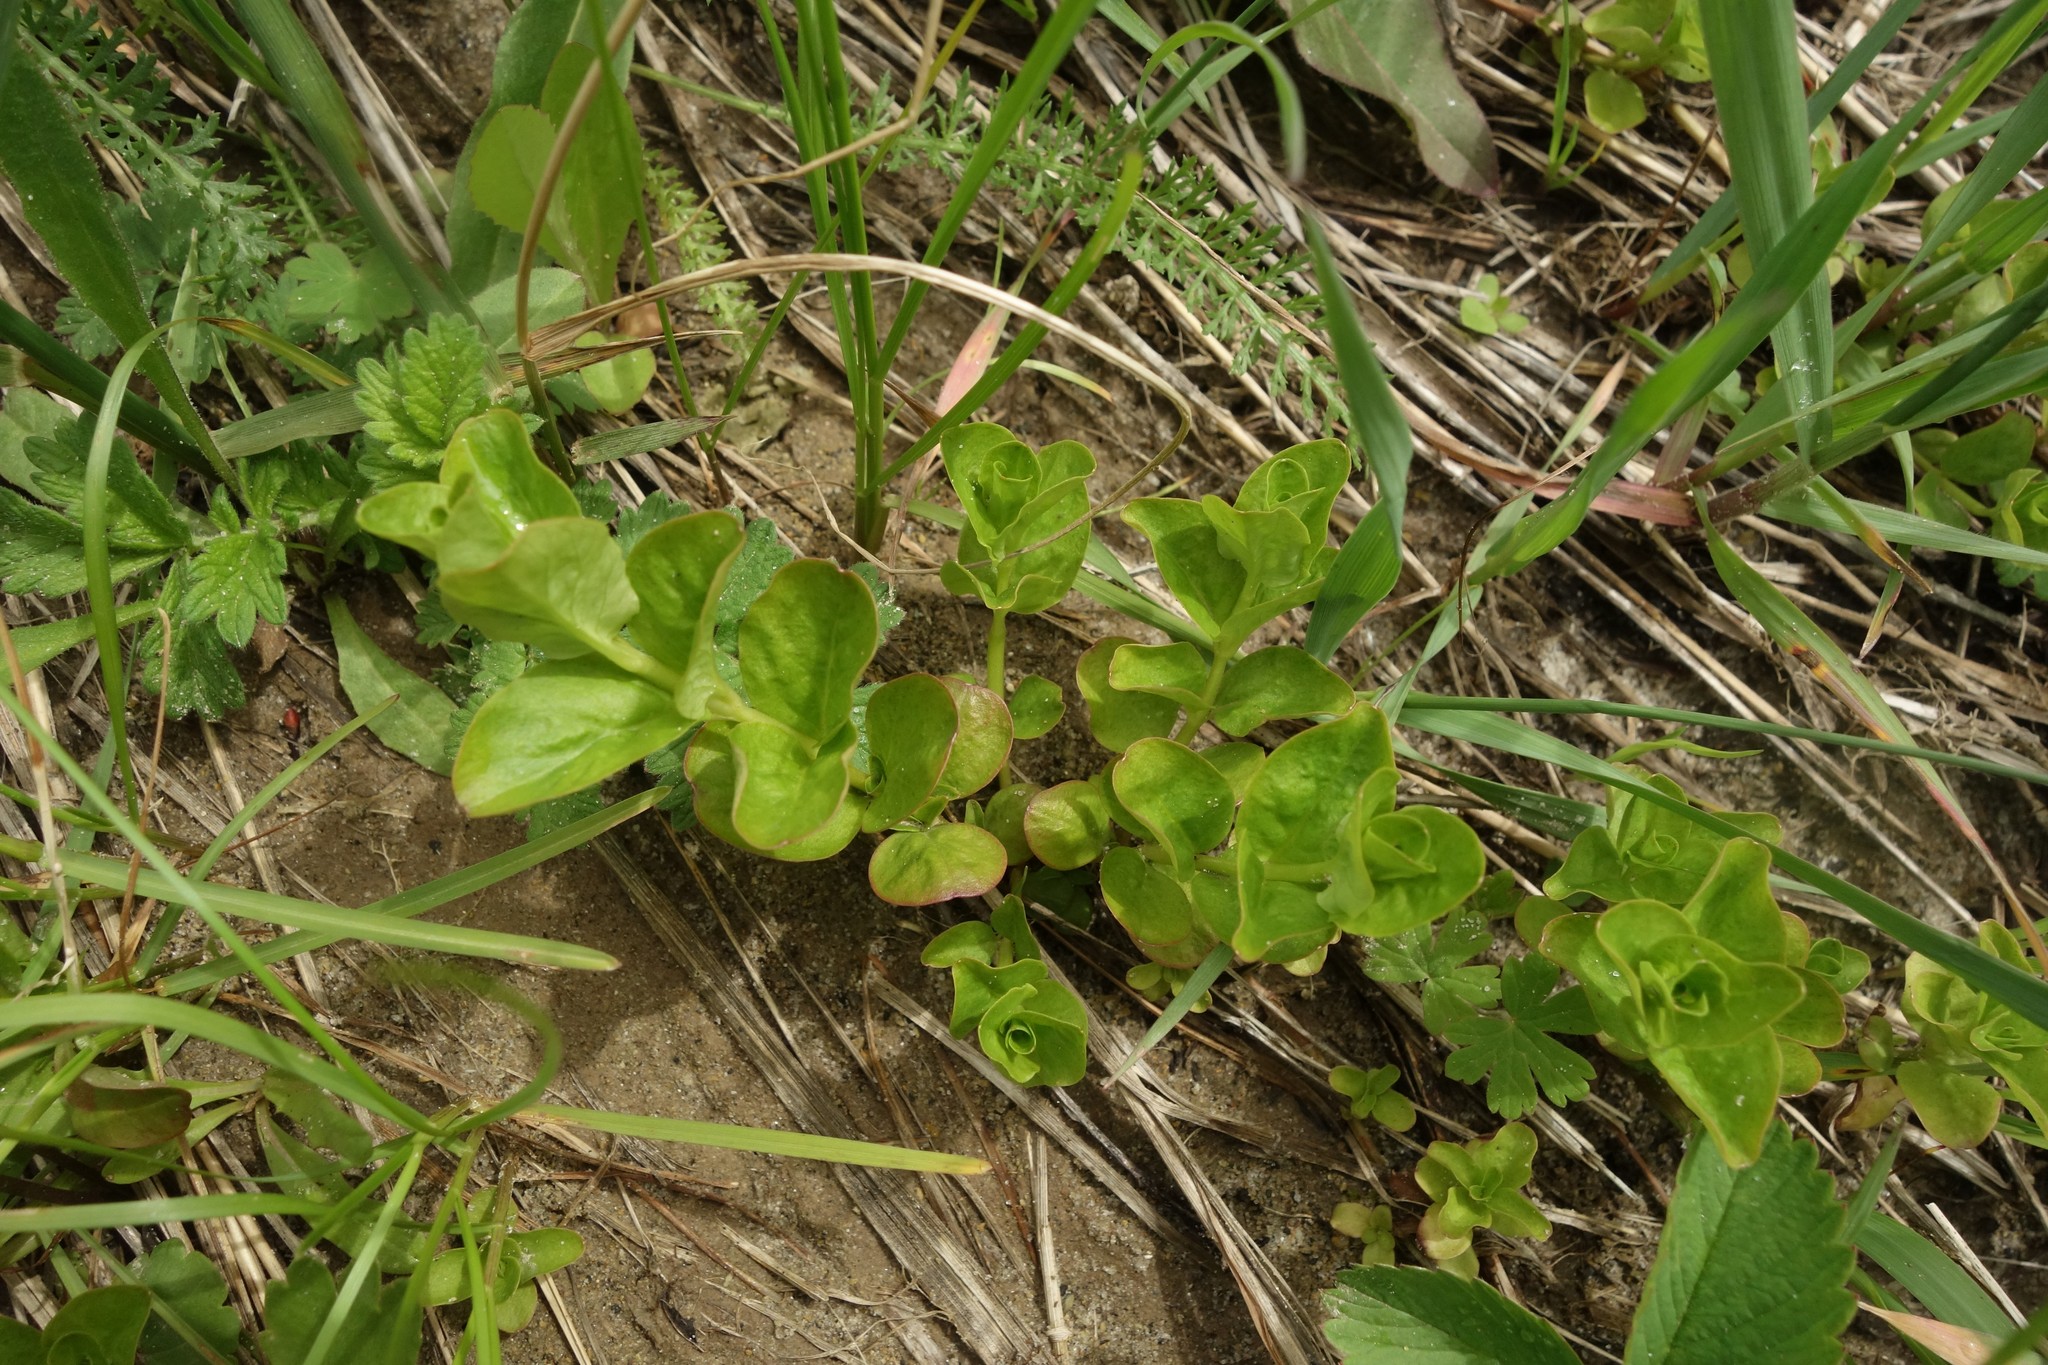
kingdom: Plantae
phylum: Tracheophyta
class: Magnoliopsida
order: Ericales
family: Primulaceae
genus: Lysimachia
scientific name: Lysimachia nummularia
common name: Moneywort
